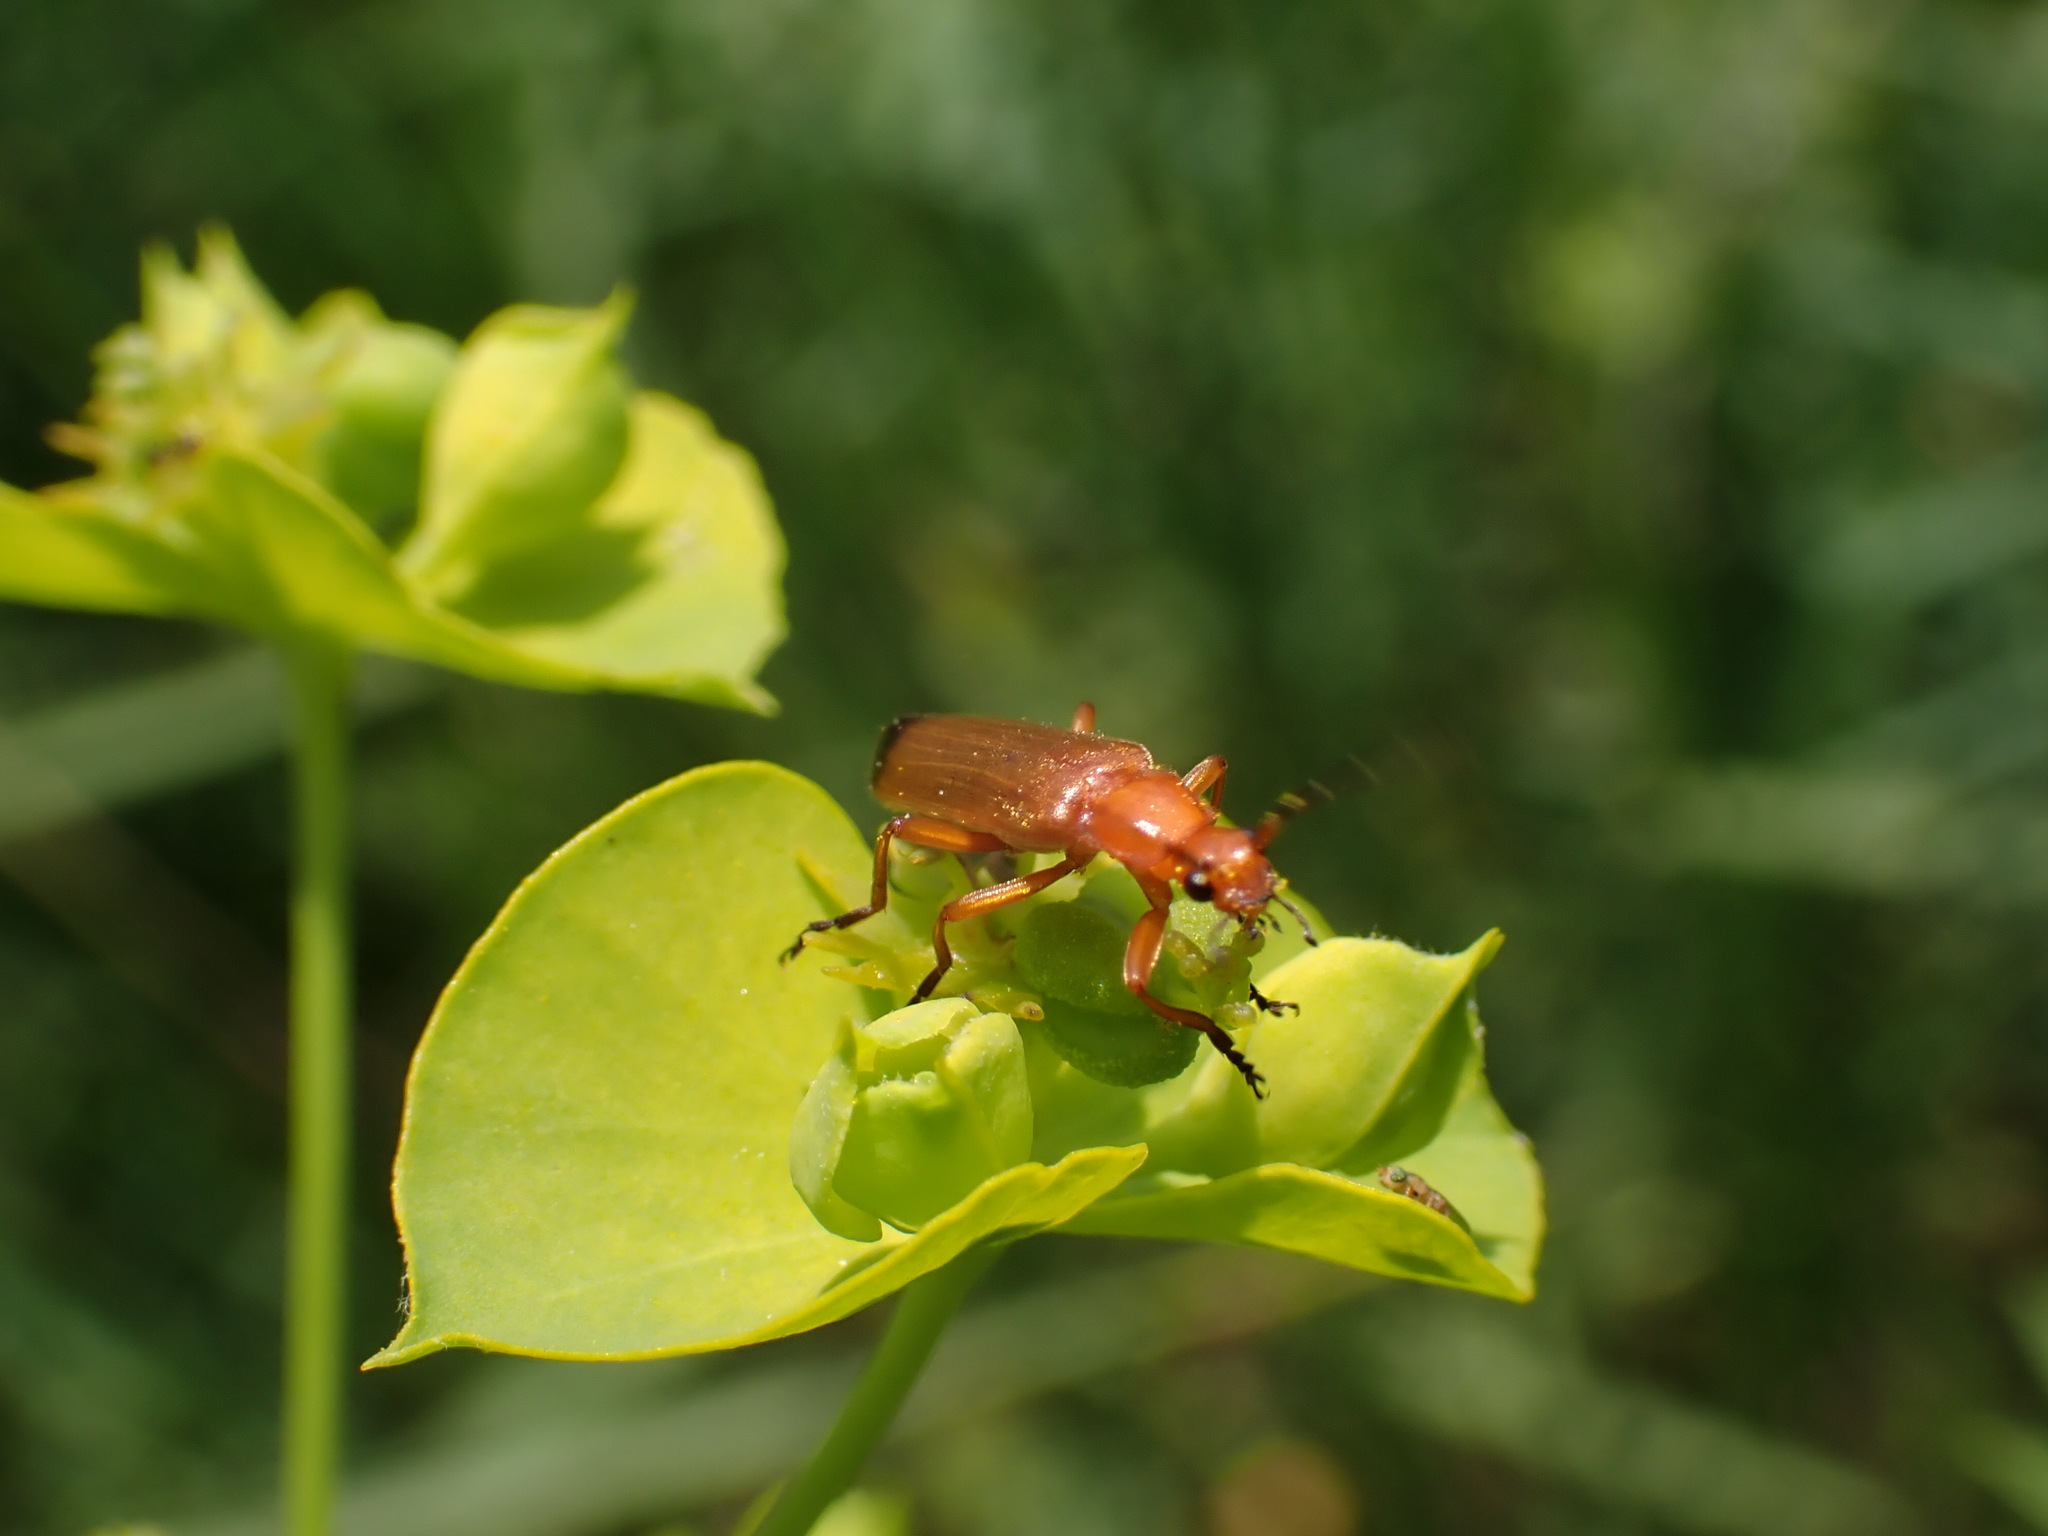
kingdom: Animalia
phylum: Arthropoda
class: Insecta
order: Coleoptera
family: Cantharidae
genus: Rhagonycha
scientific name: Rhagonycha fulva
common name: Common red soldier beetle
